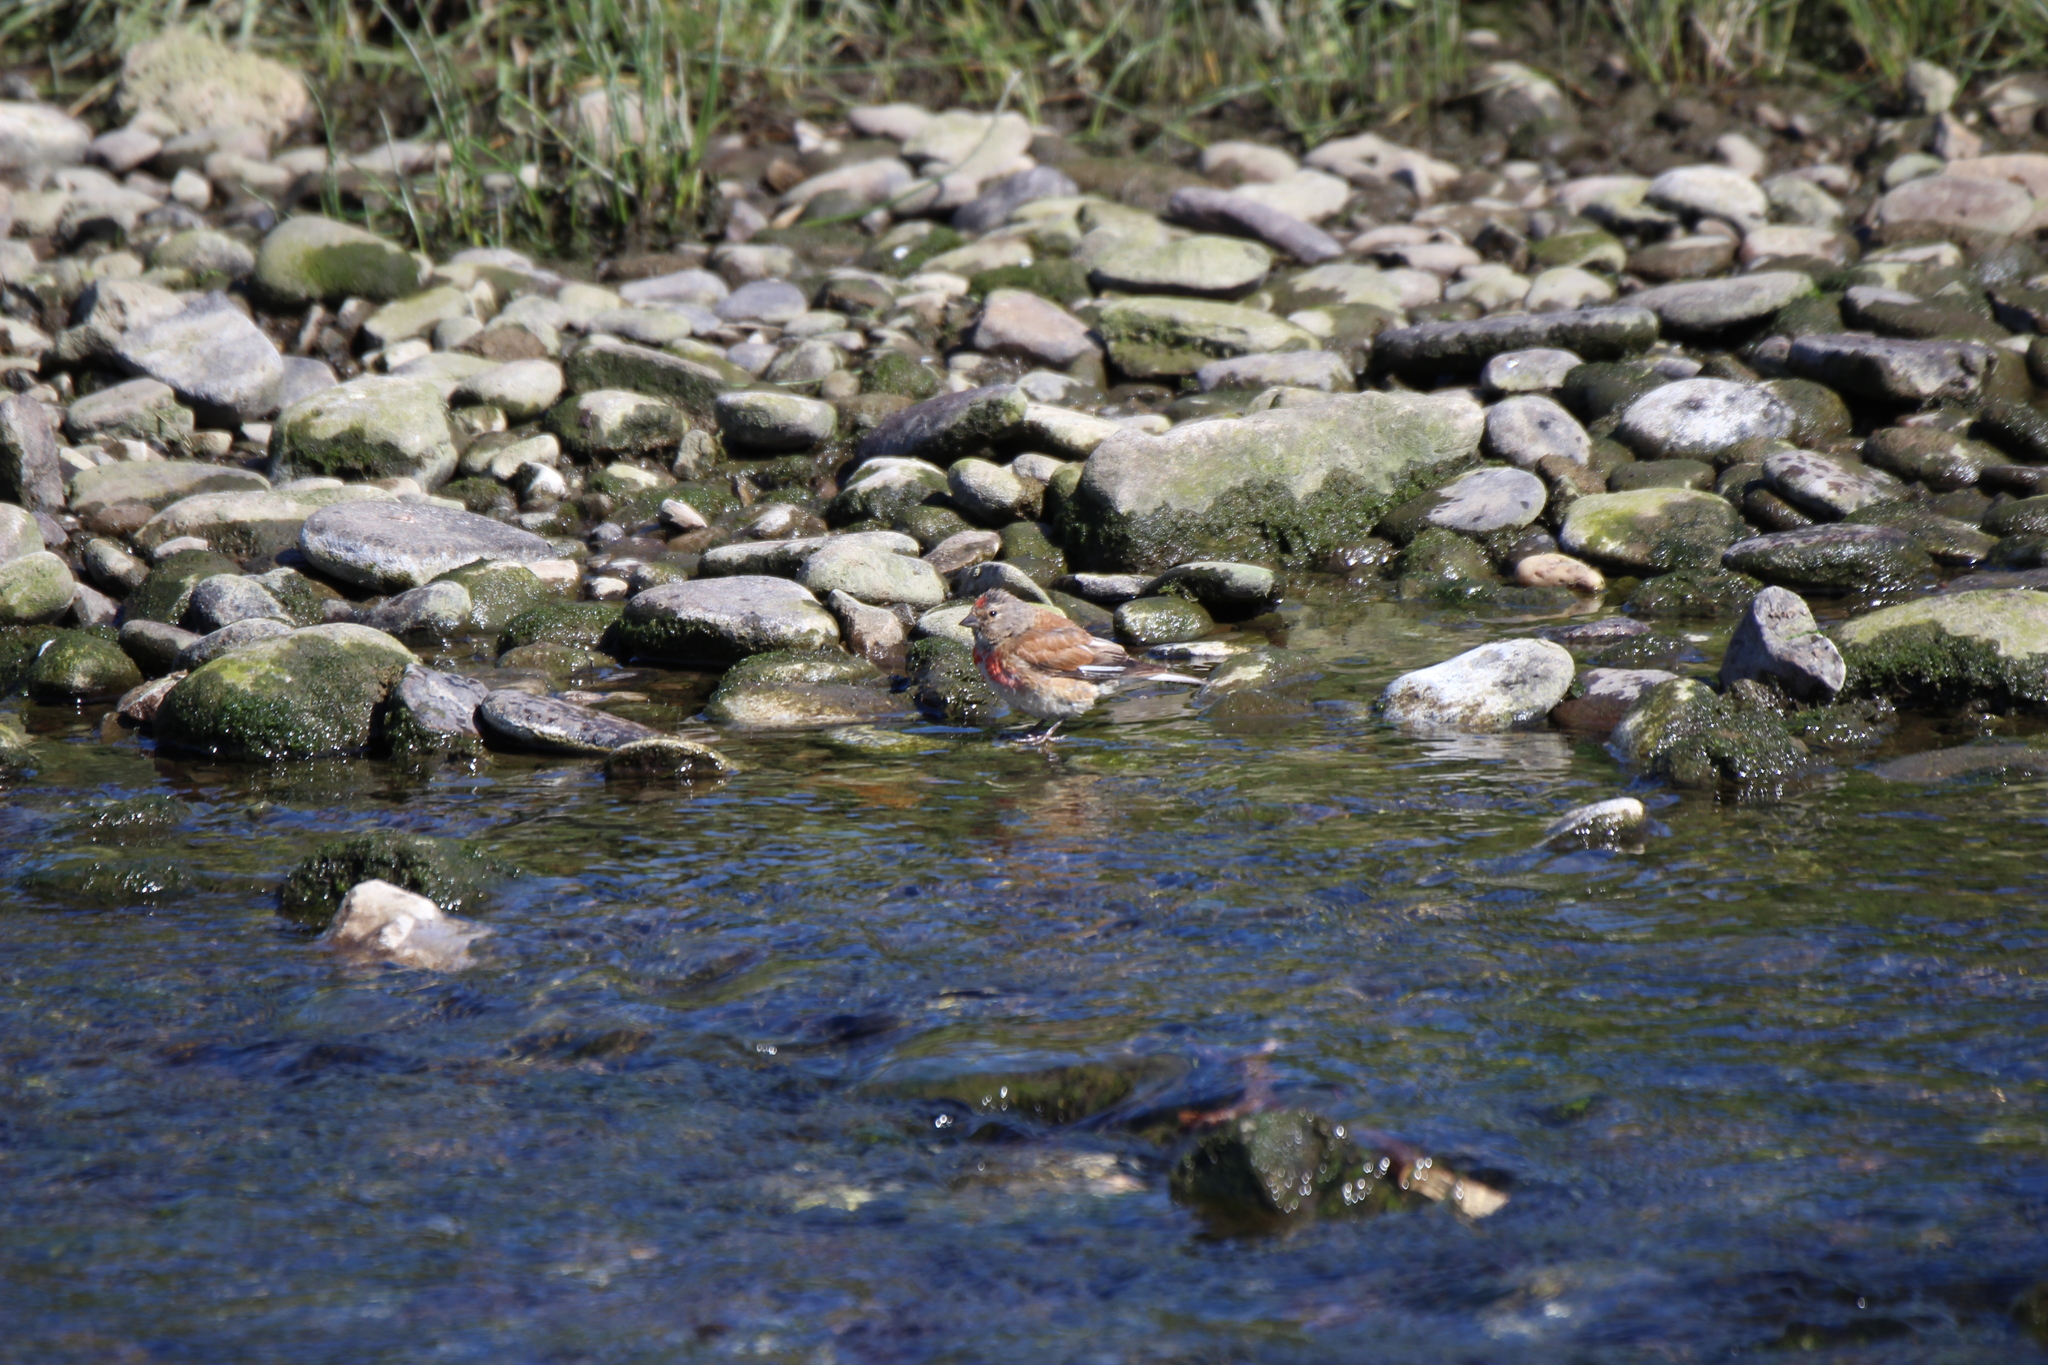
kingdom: Animalia
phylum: Chordata
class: Aves
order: Passeriformes
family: Fringillidae
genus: Linaria
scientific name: Linaria cannabina
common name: Common linnet
